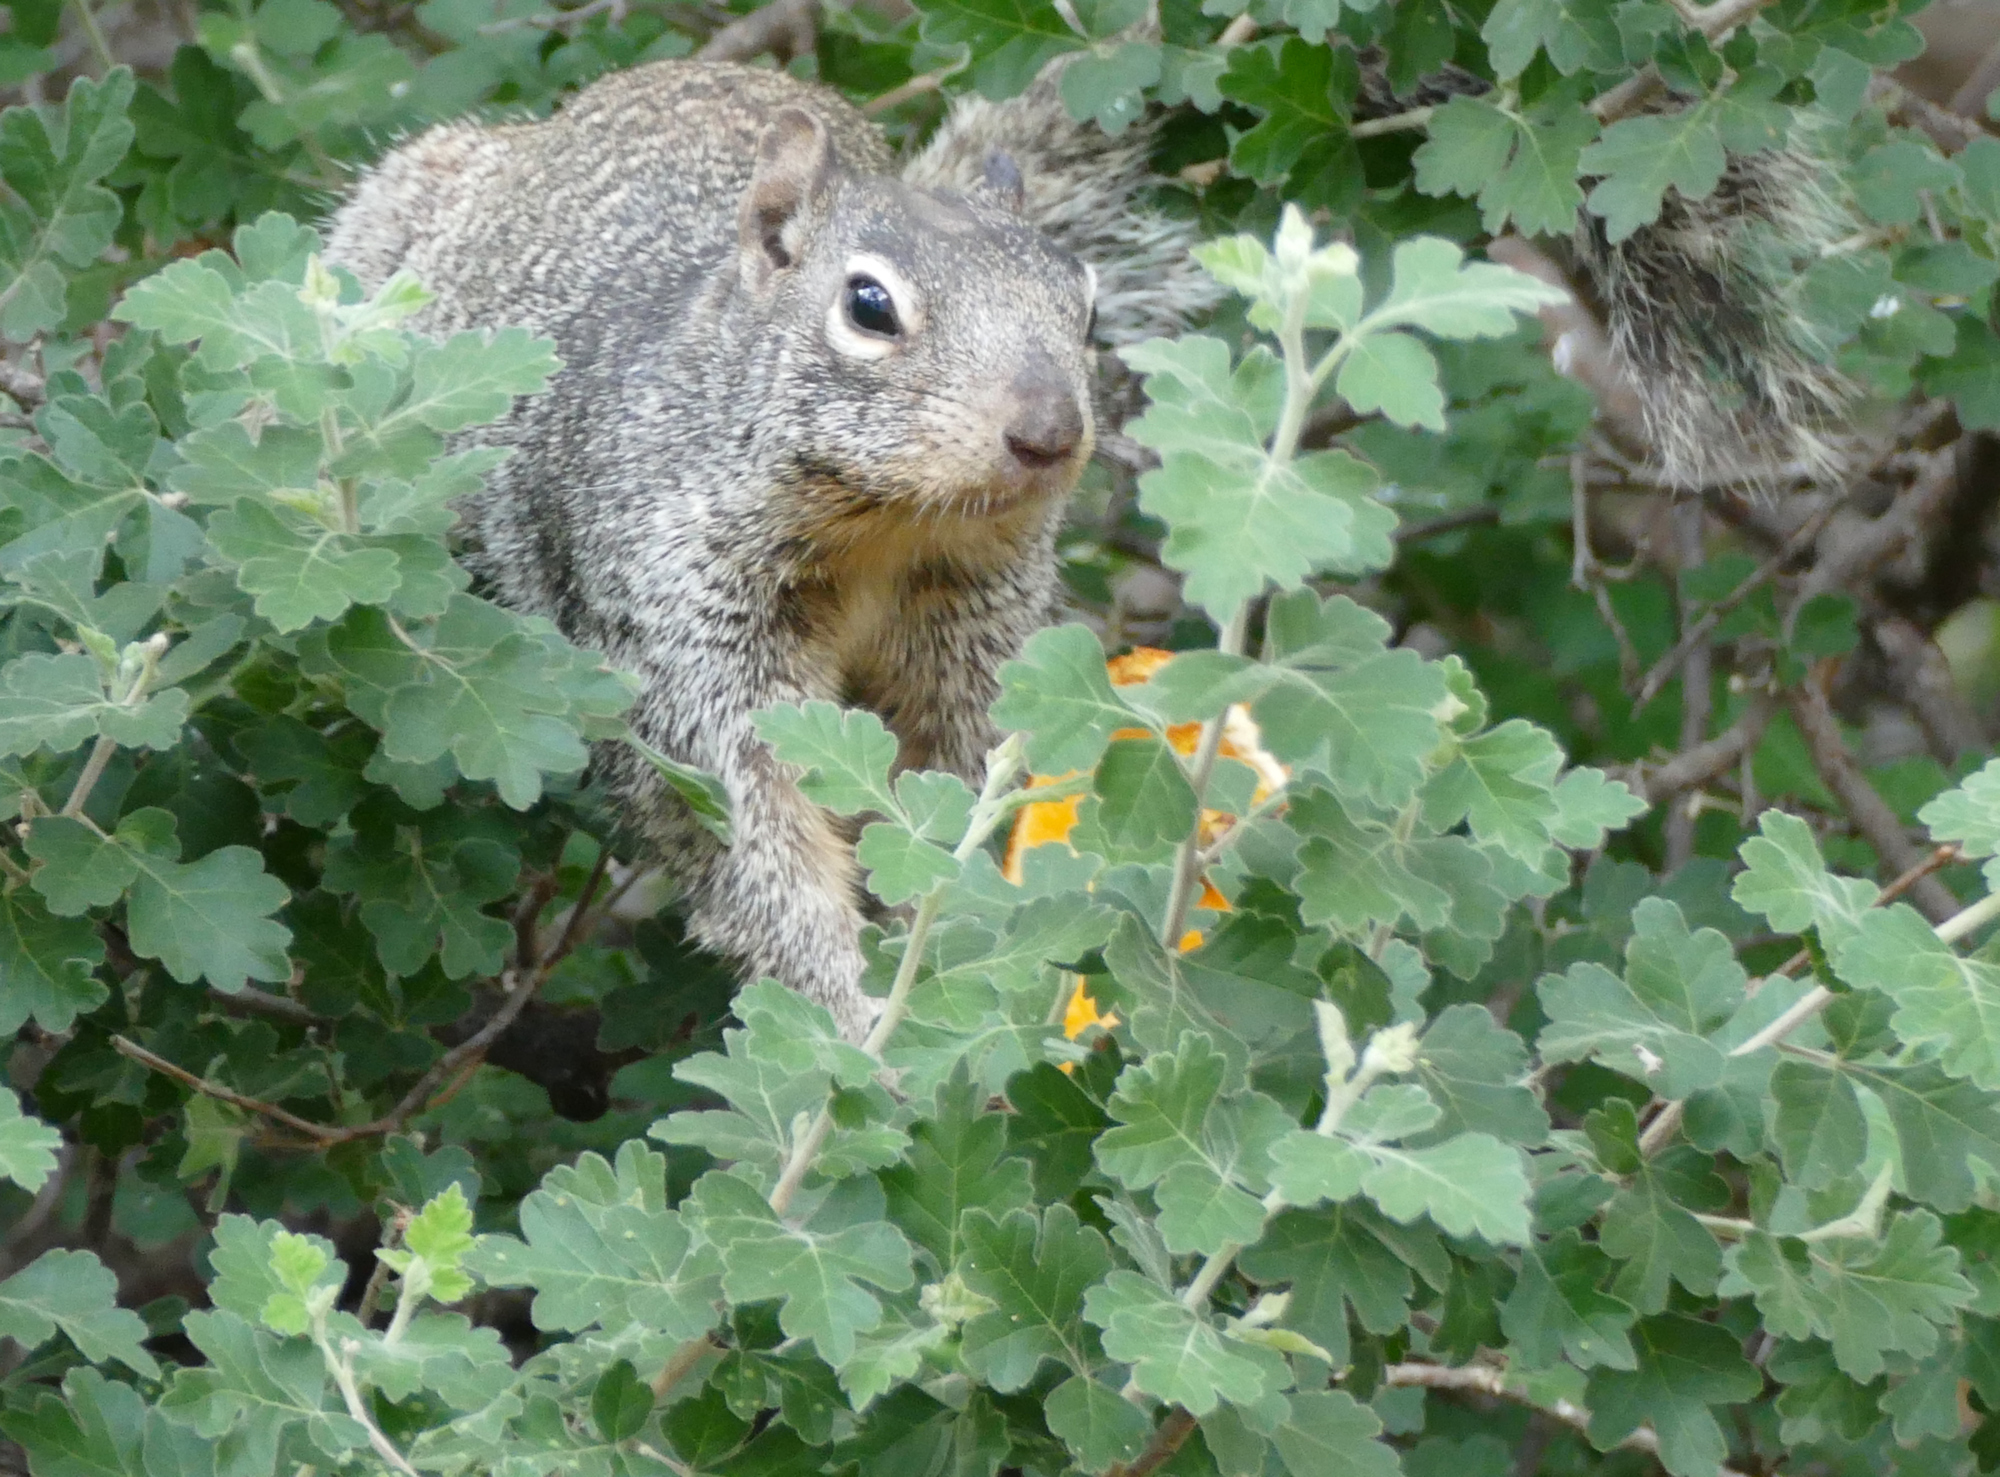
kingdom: Animalia
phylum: Chordata
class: Mammalia
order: Rodentia
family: Sciuridae
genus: Otospermophilus
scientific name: Otospermophilus variegatus
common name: Rock squirrel
